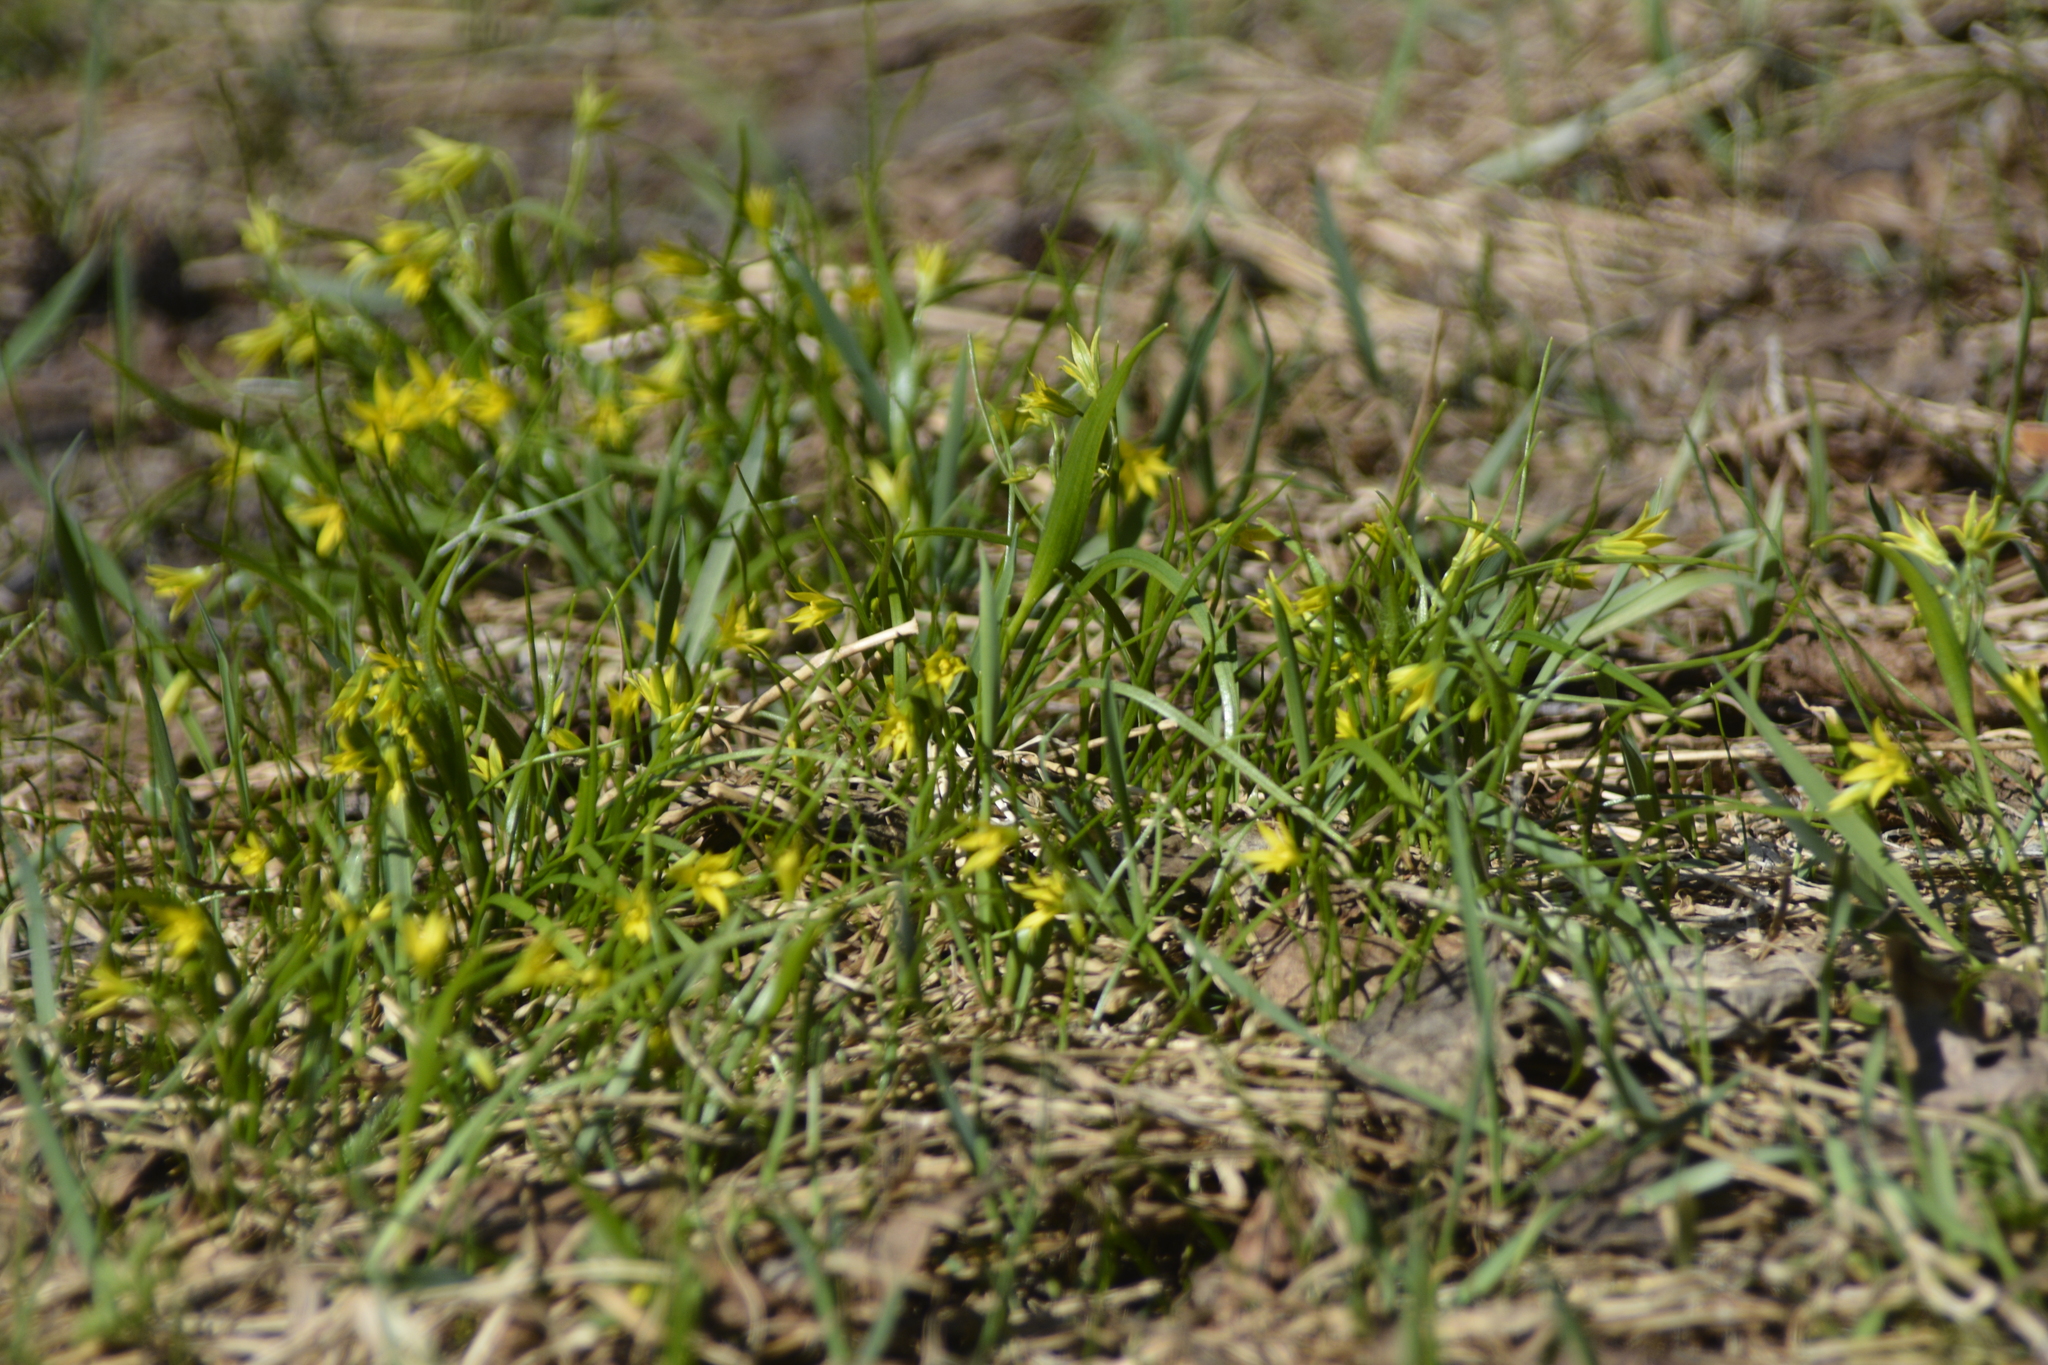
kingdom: Plantae
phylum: Tracheophyta
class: Liliopsida
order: Liliales
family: Liliaceae
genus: Gagea
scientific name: Gagea minima
